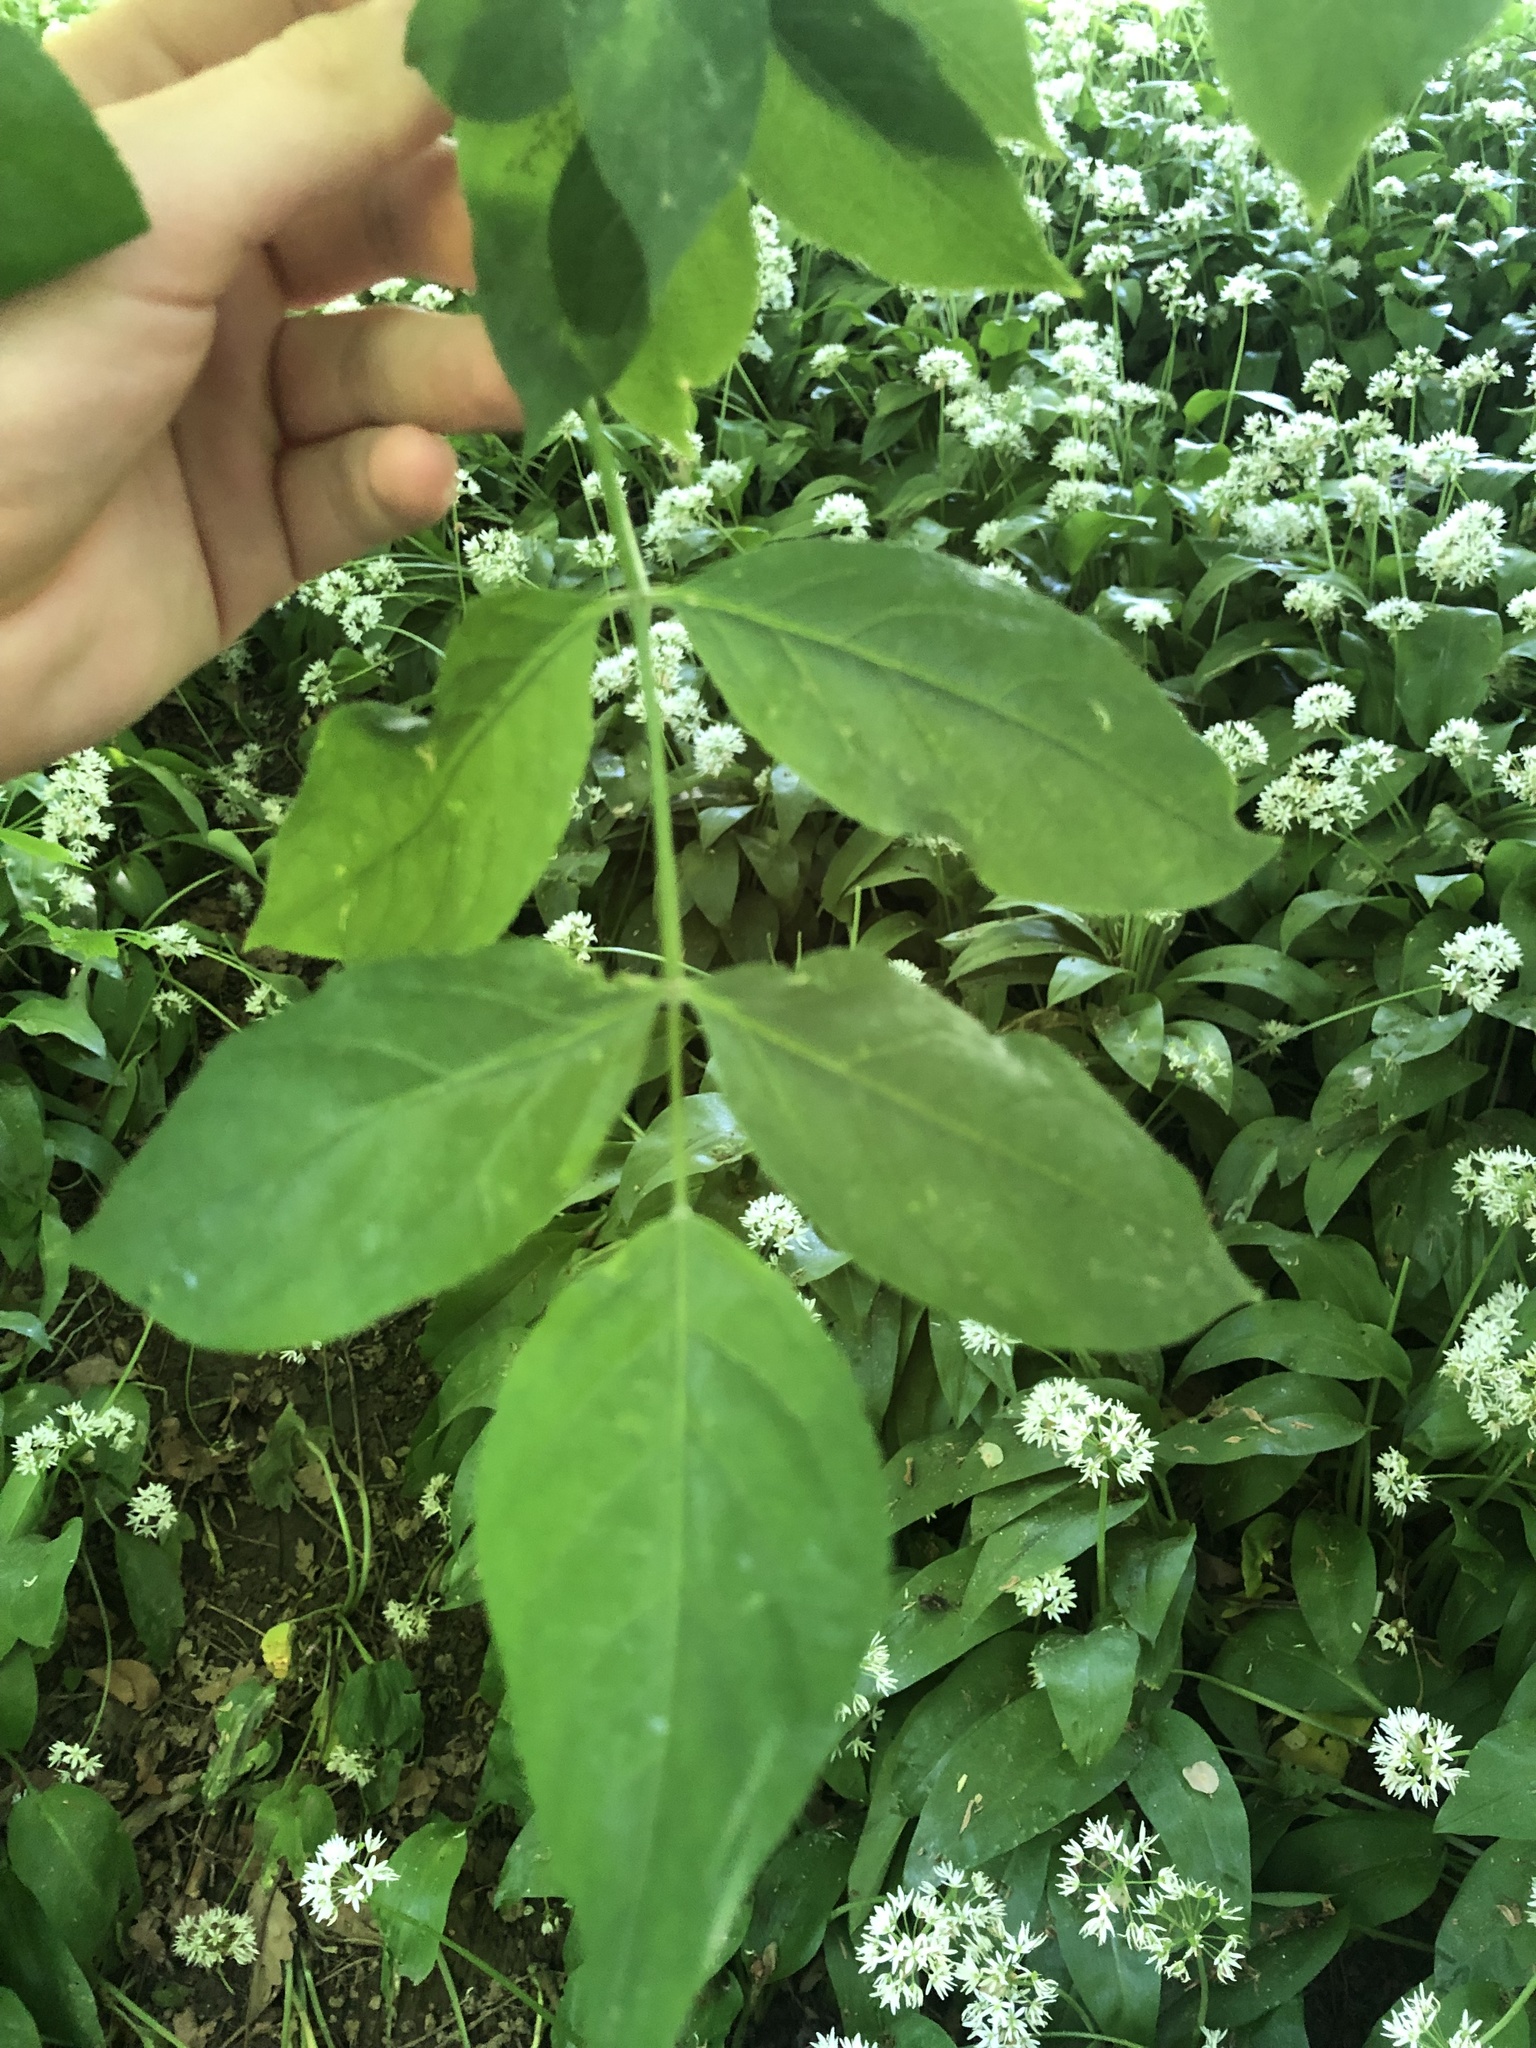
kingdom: Plantae
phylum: Tracheophyta
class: Magnoliopsida
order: Crossosomatales
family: Staphyleaceae
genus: Staphylea
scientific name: Staphylea pinnata
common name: Bladdernut
